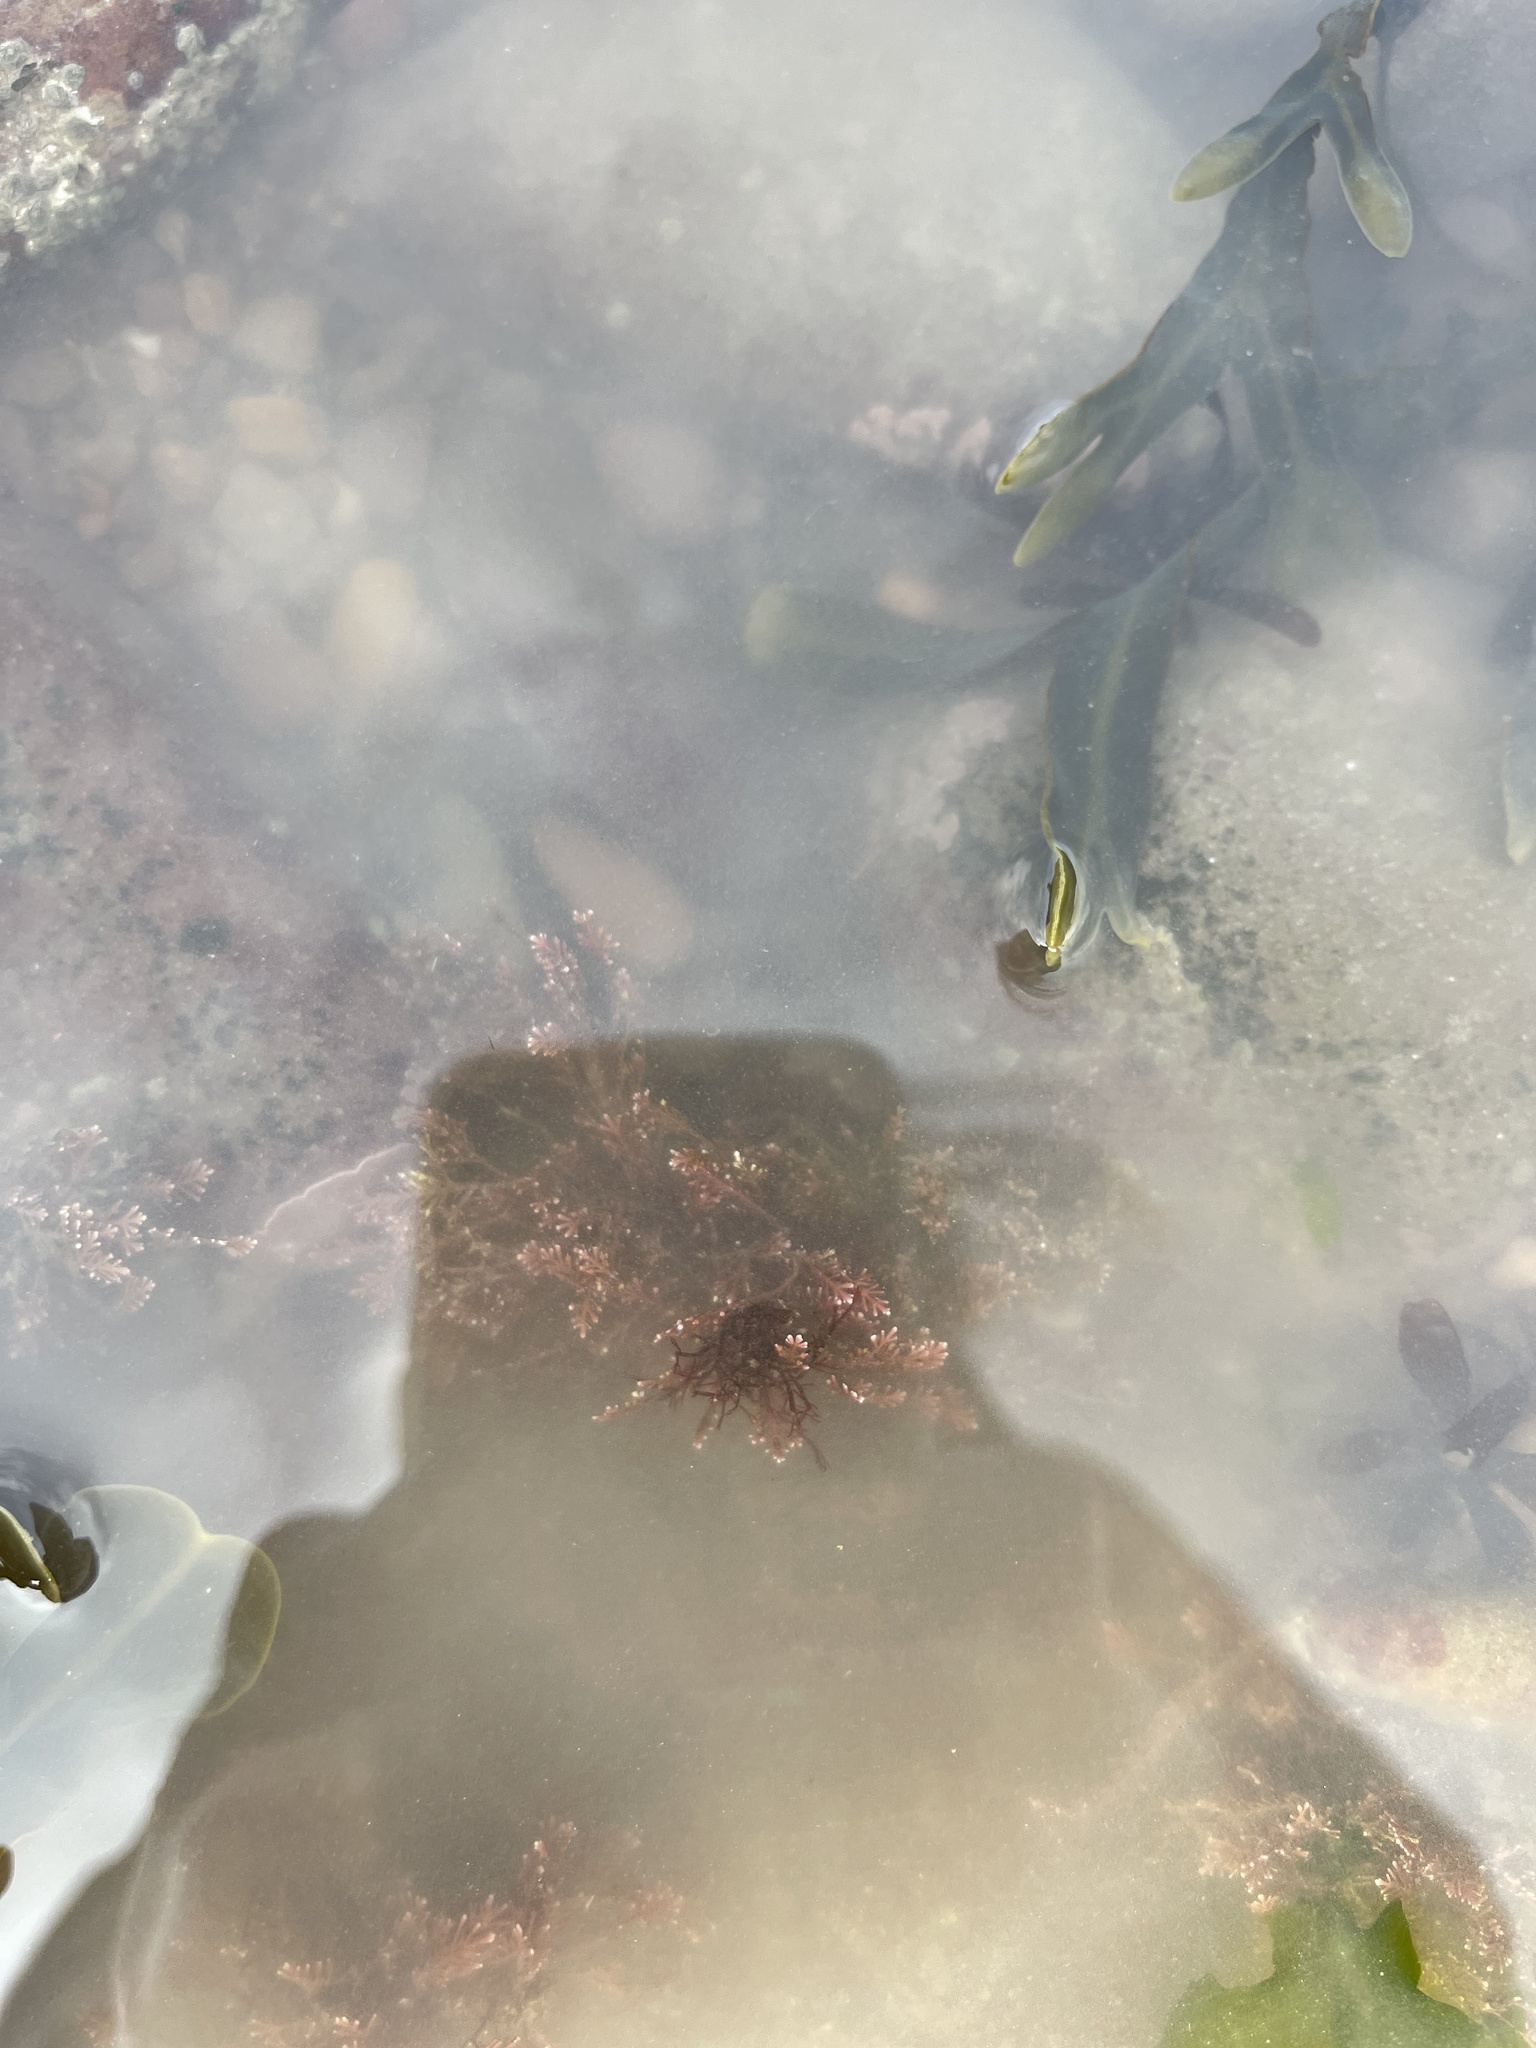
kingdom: Plantae
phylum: Rhodophyta
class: Florideophyceae
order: Corallinales
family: Corallinaceae
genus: Corallina
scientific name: Corallina officinalis
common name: Coral weed
